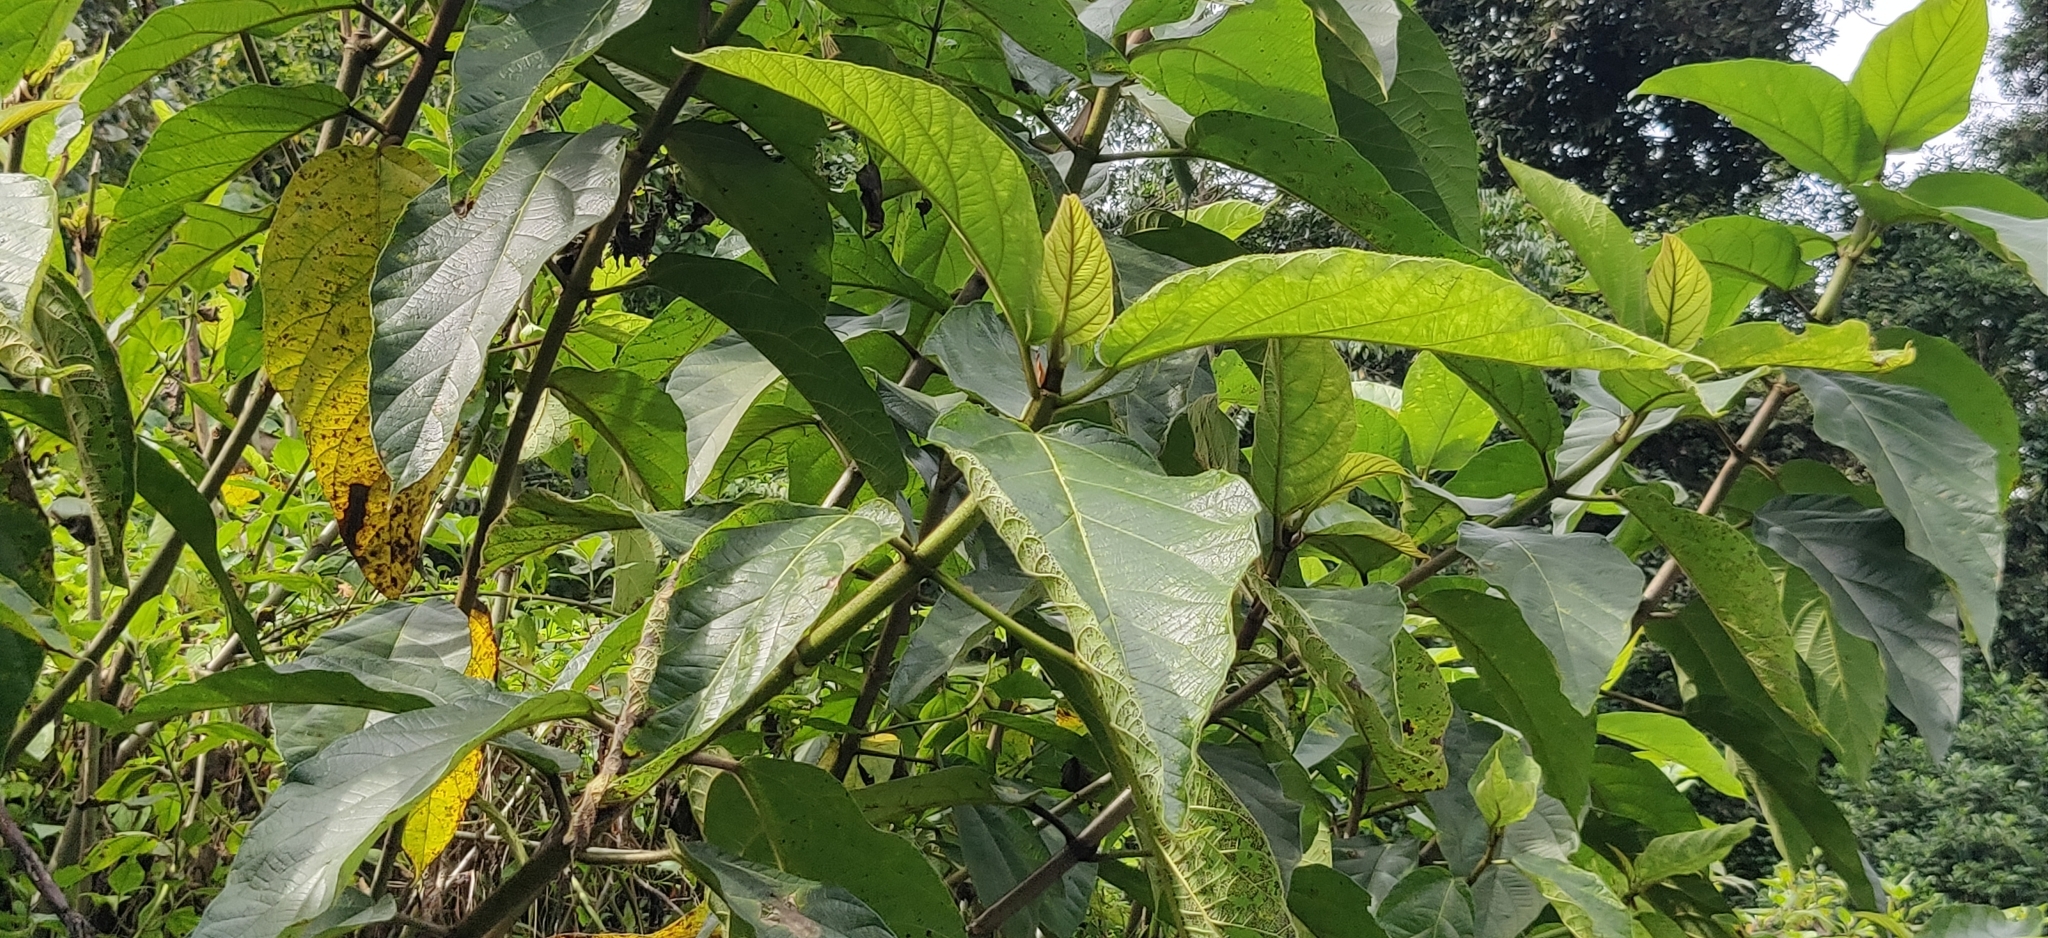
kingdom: Plantae
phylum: Tracheophyta
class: Magnoliopsida
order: Rosales
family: Moraceae
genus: Ficus
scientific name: Ficus hispida
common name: Hairy fig
